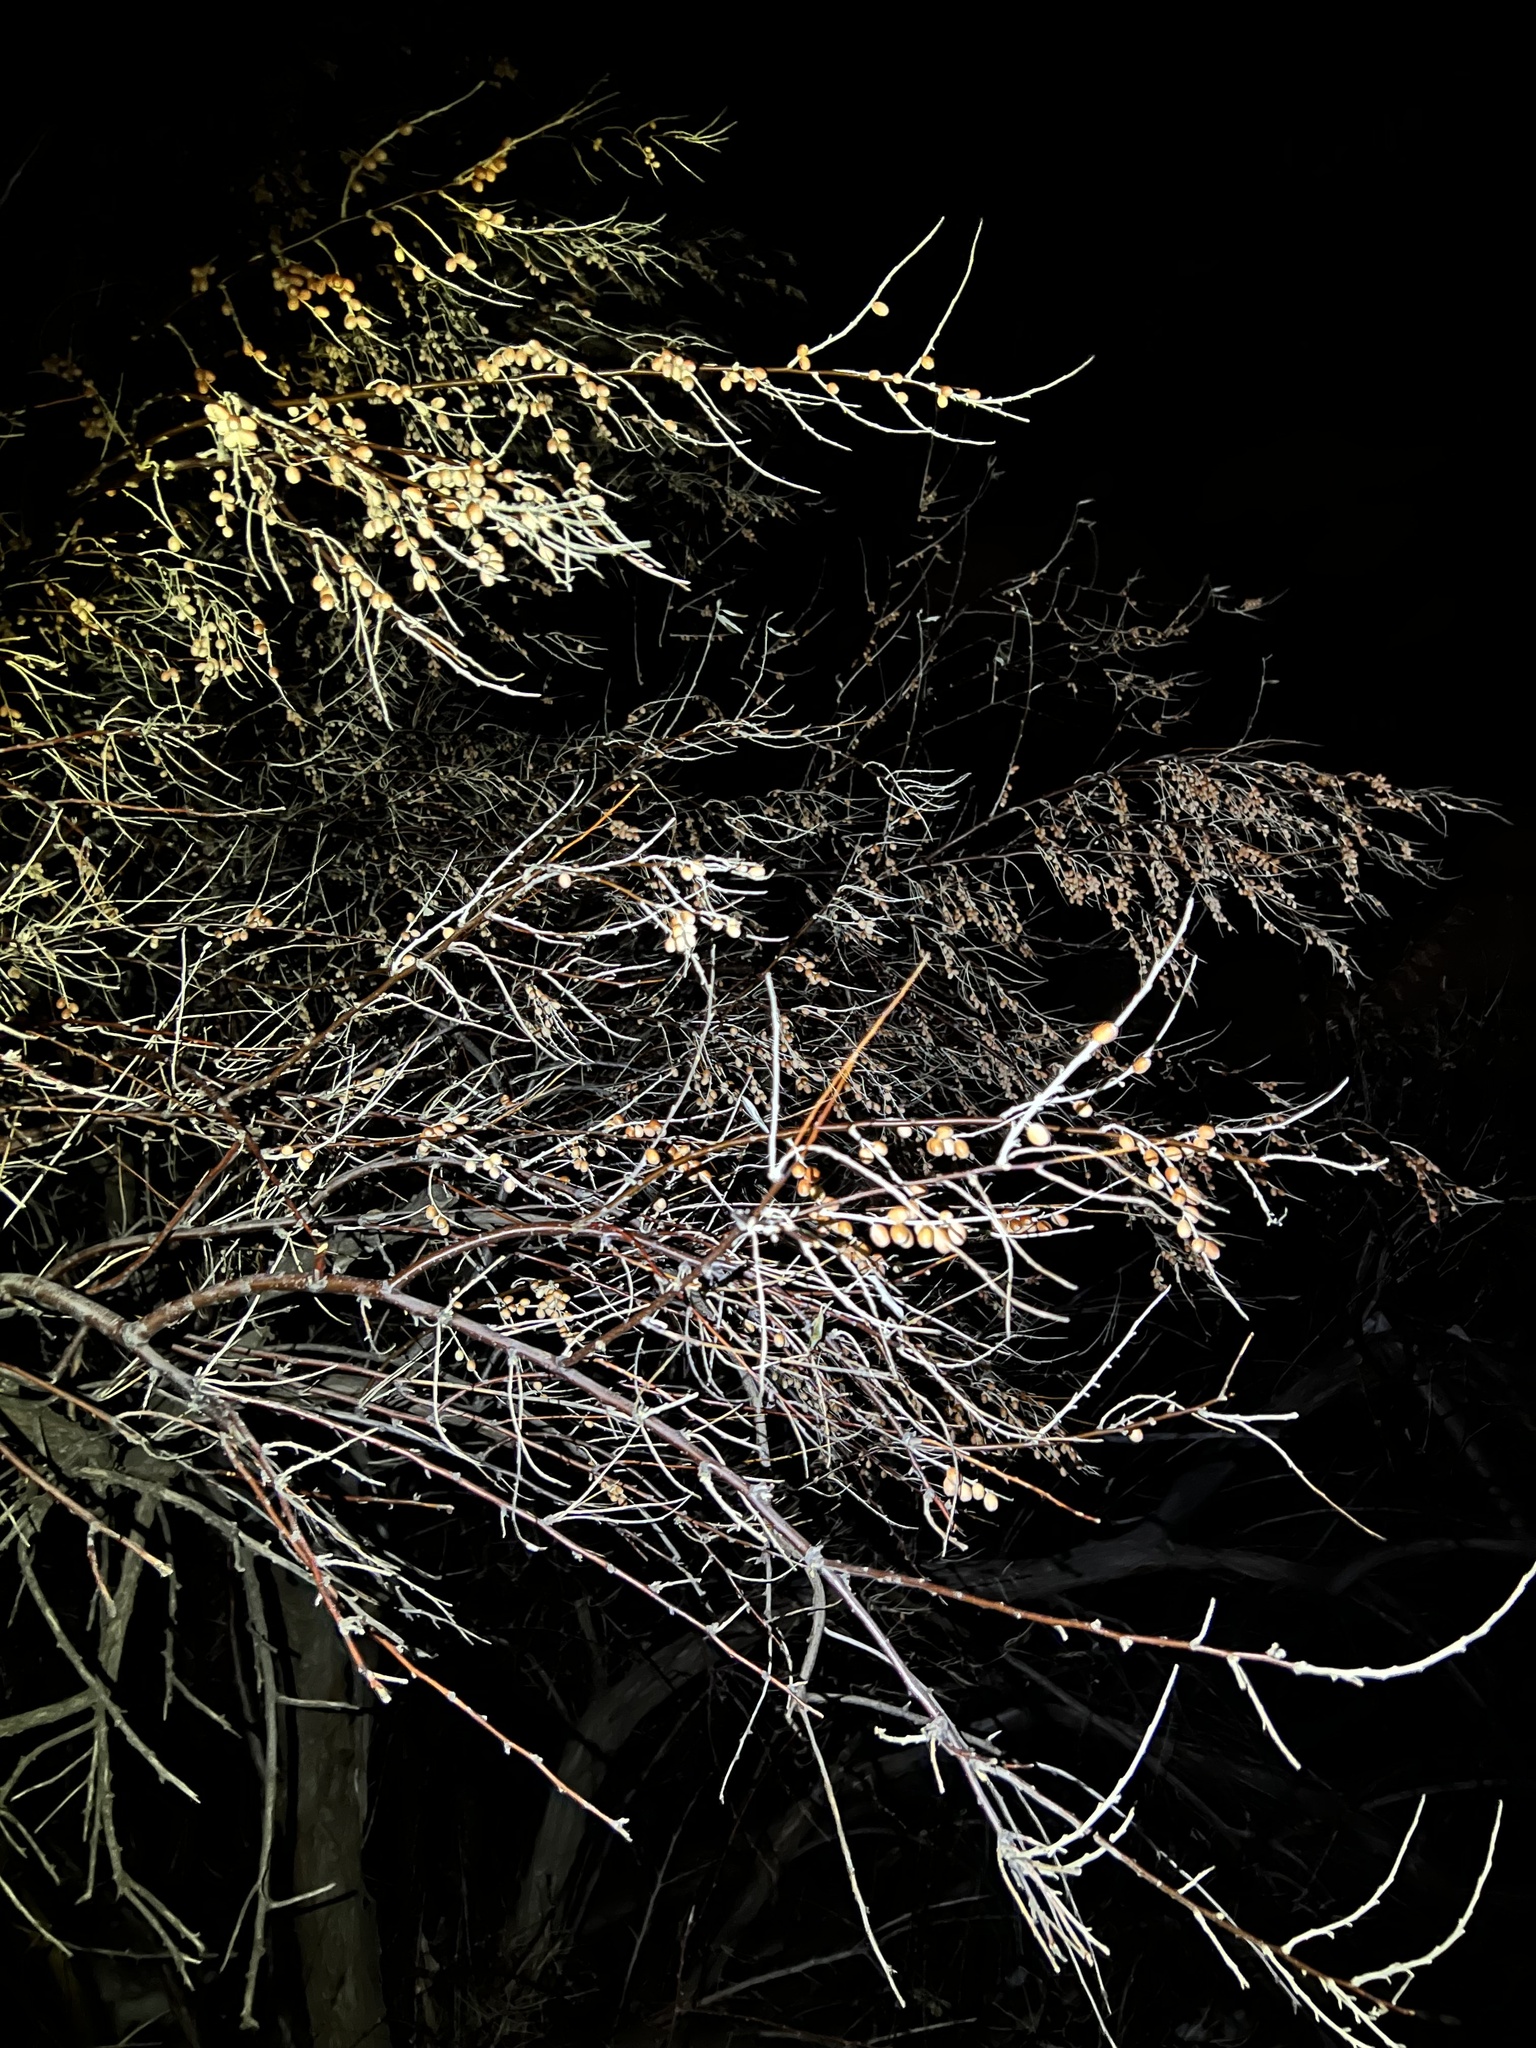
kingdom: Plantae
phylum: Tracheophyta
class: Magnoliopsida
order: Rosales
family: Elaeagnaceae
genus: Elaeagnus
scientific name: Elaeagnus angustifolia
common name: Russian olive
